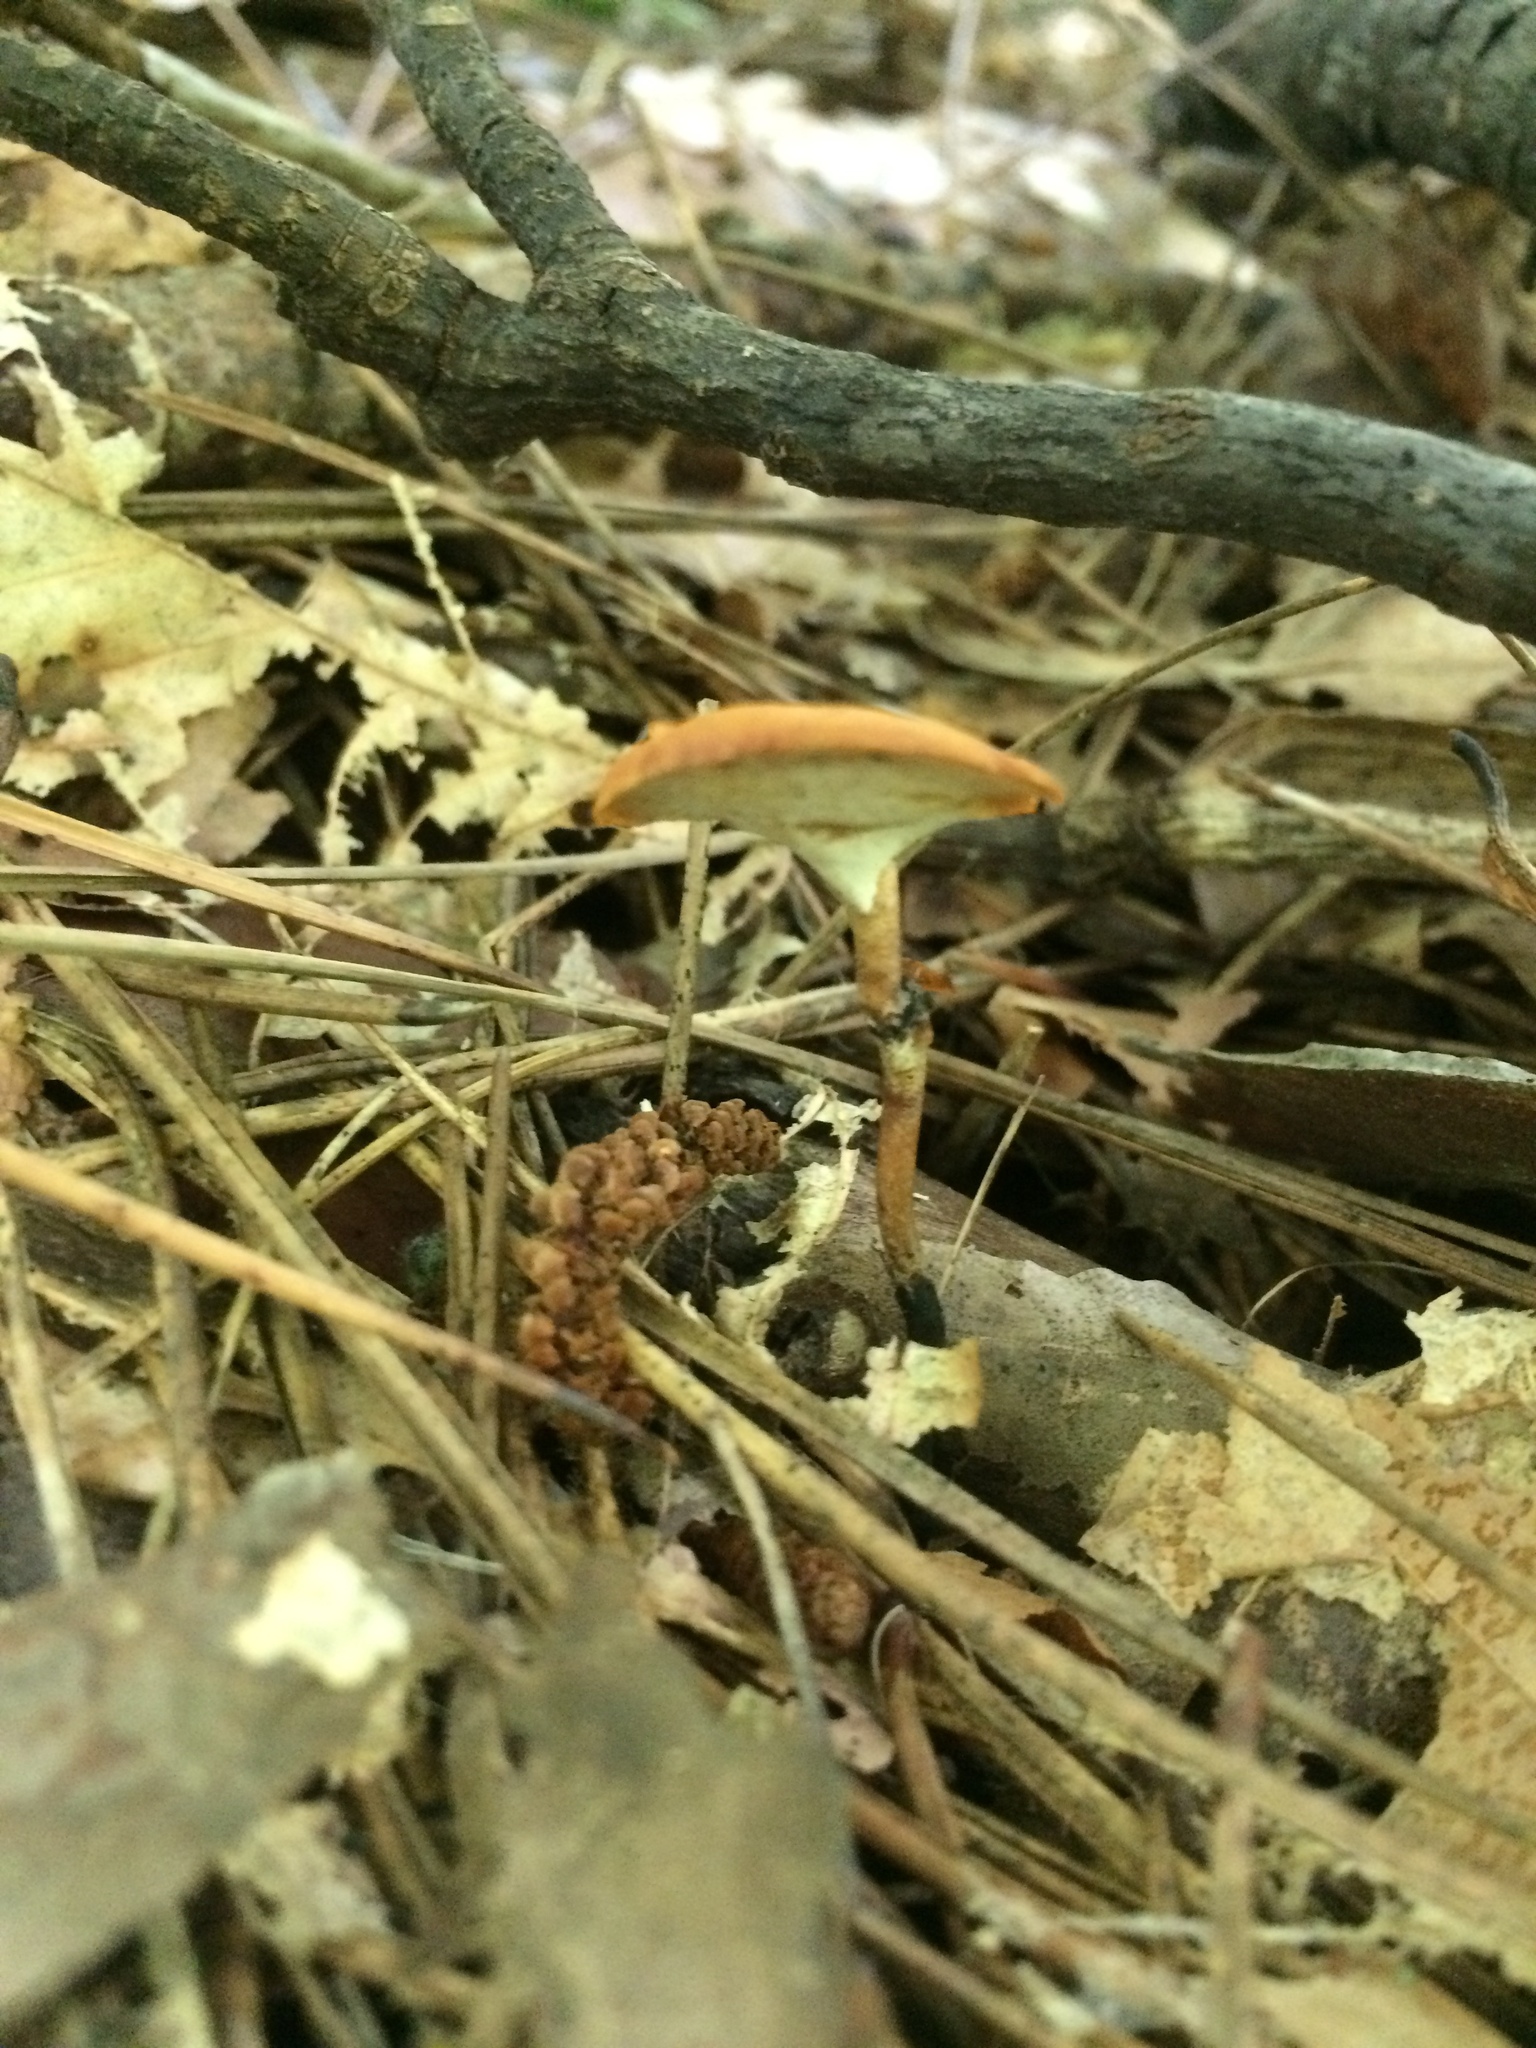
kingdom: Fungi
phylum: Basidiomycota
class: Agaricomycetes
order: Polyporales
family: Polyporaceae
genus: Cerioporus
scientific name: Cerioporus varius
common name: Elegant polypore
